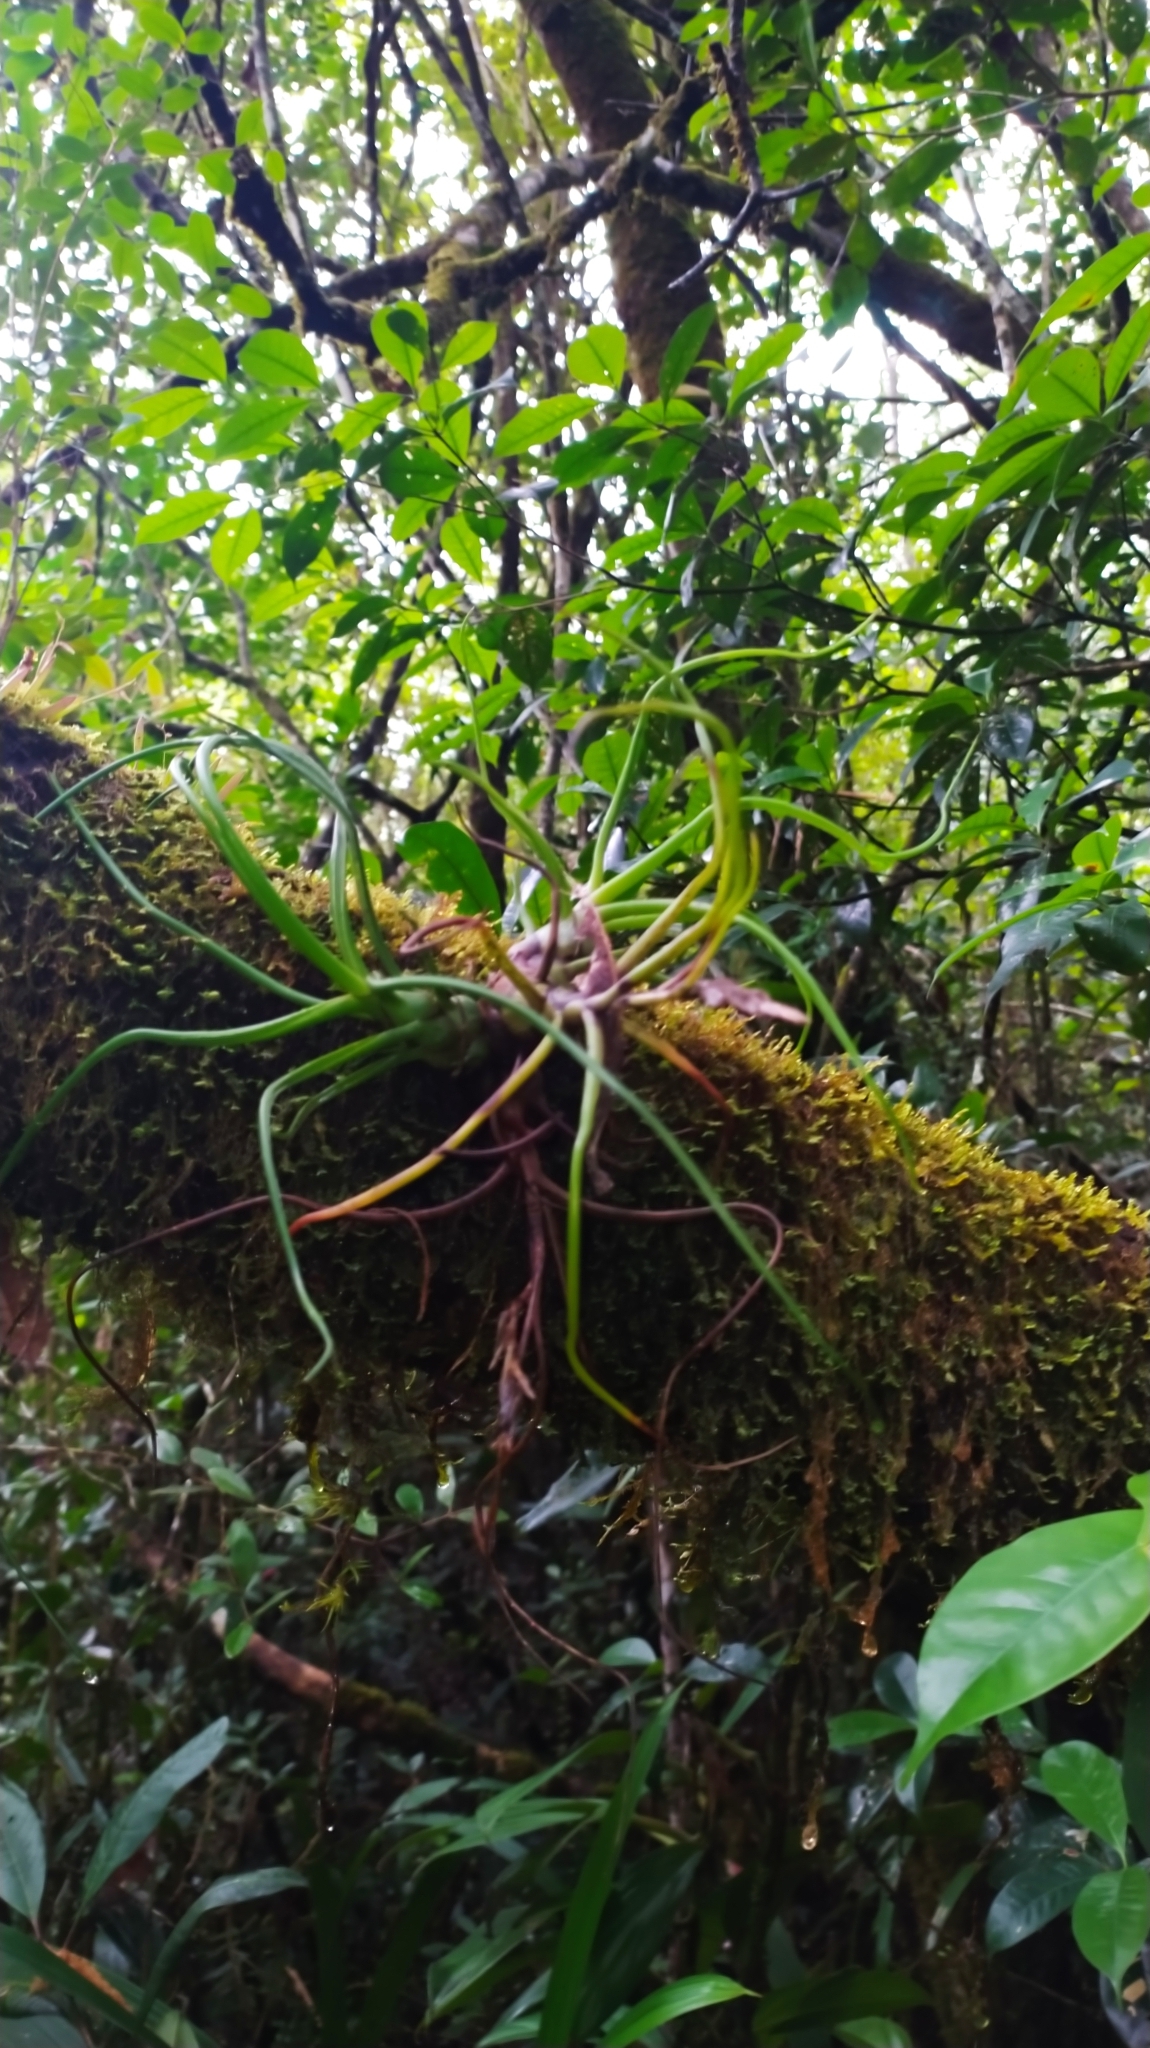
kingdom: Plantae
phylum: Tracheophyta
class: Liliopsida
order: Poales
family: Bromeliaceae
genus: Tillandsia
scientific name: Tillandsia bulbosa
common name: Bulbous airplant
